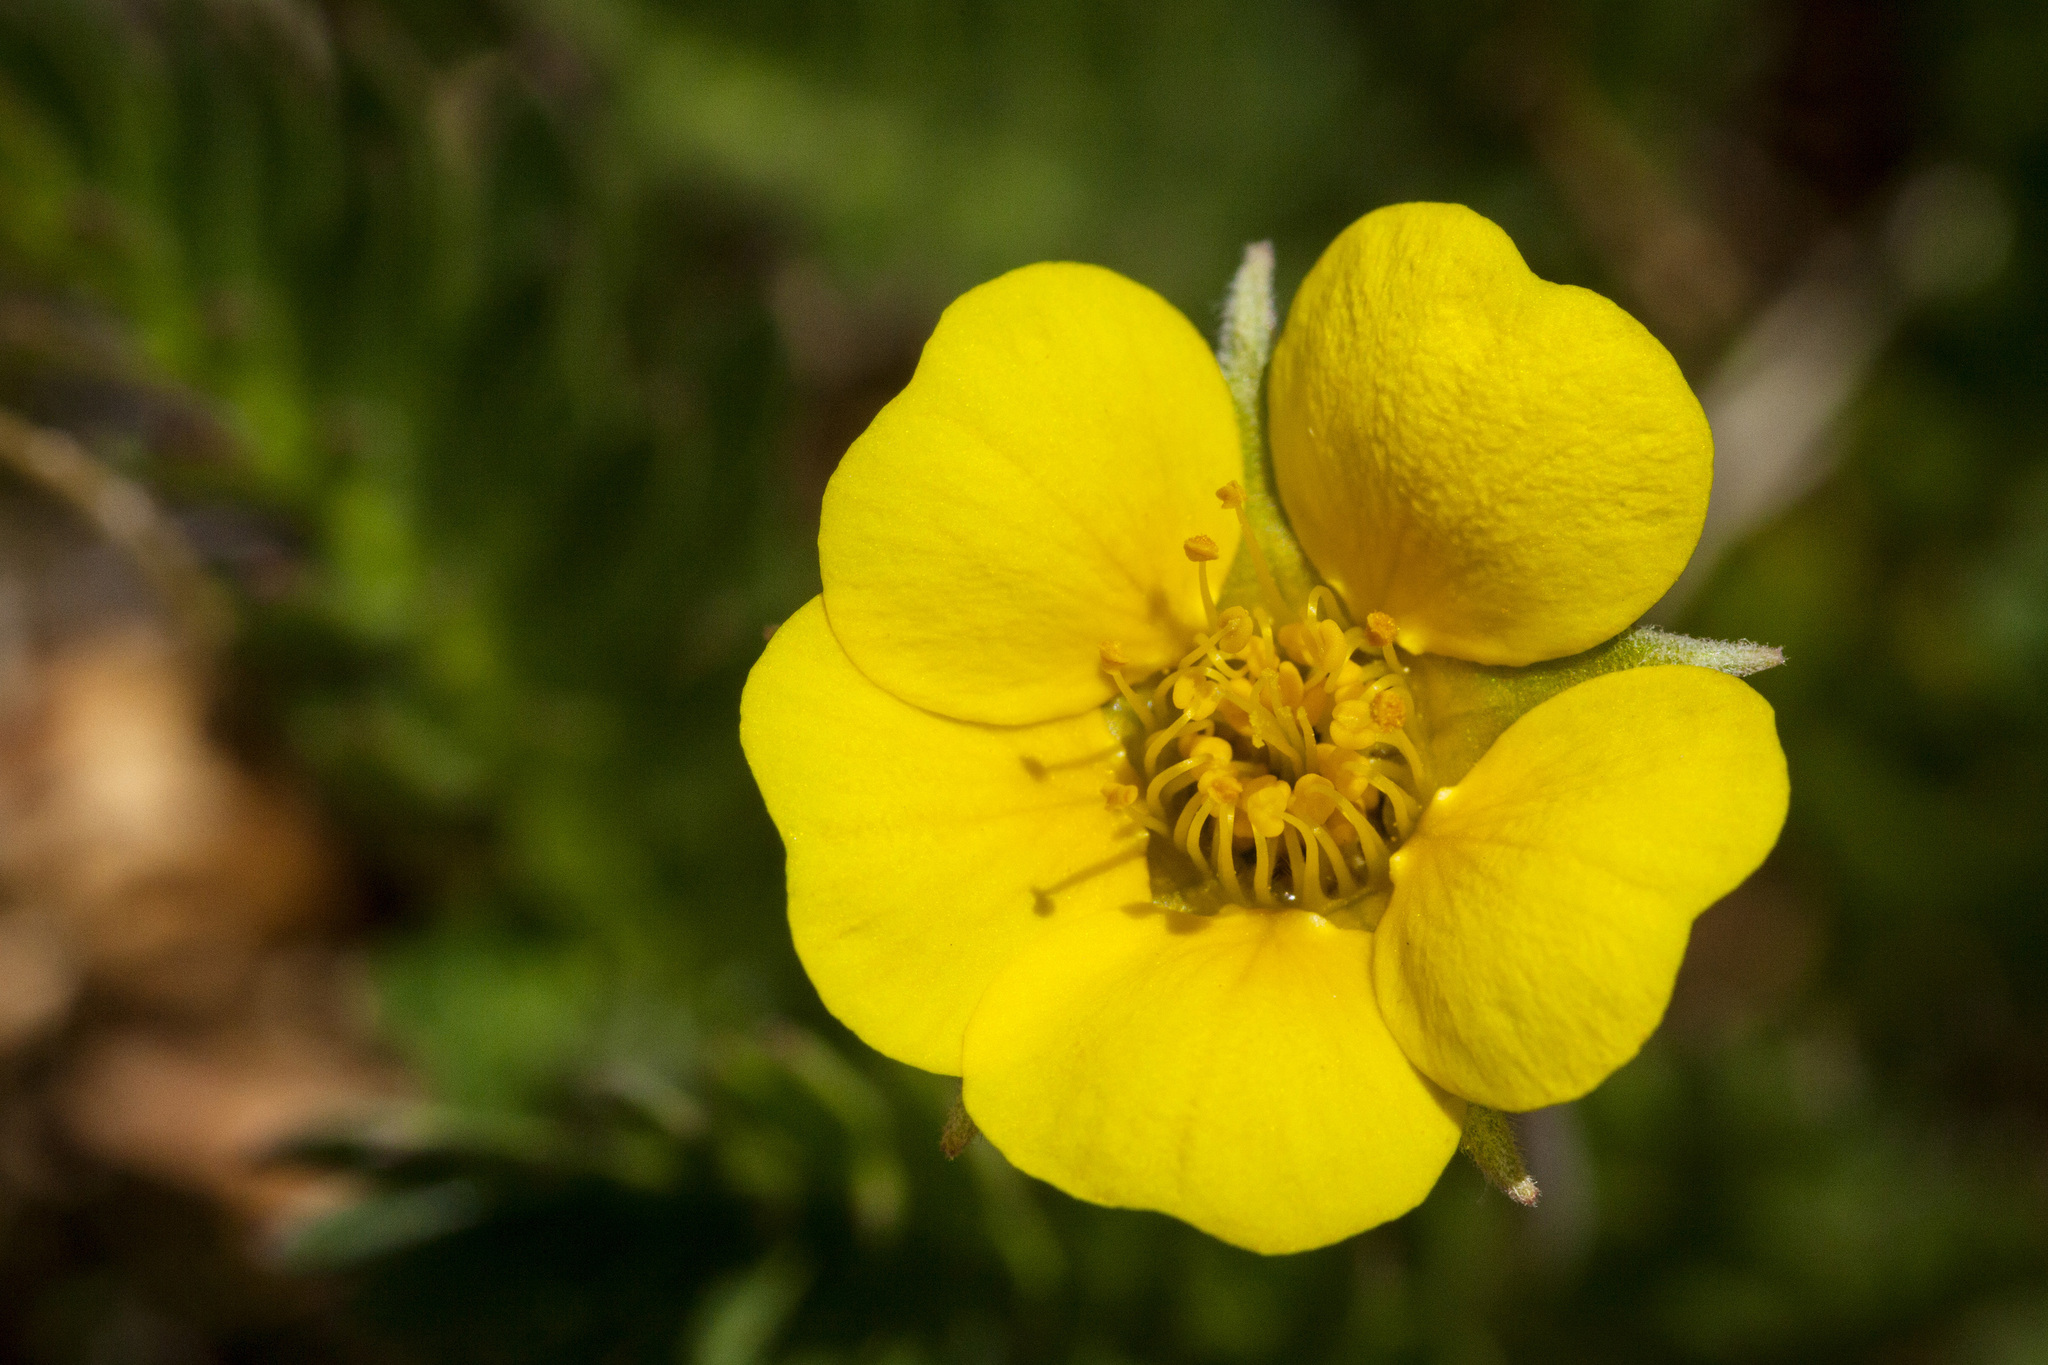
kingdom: Plantae
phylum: Tracheophyta
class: Magnoliopsida
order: Rosales
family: Rosaceae
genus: Geum
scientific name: Geum rossii
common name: Alpine avens
